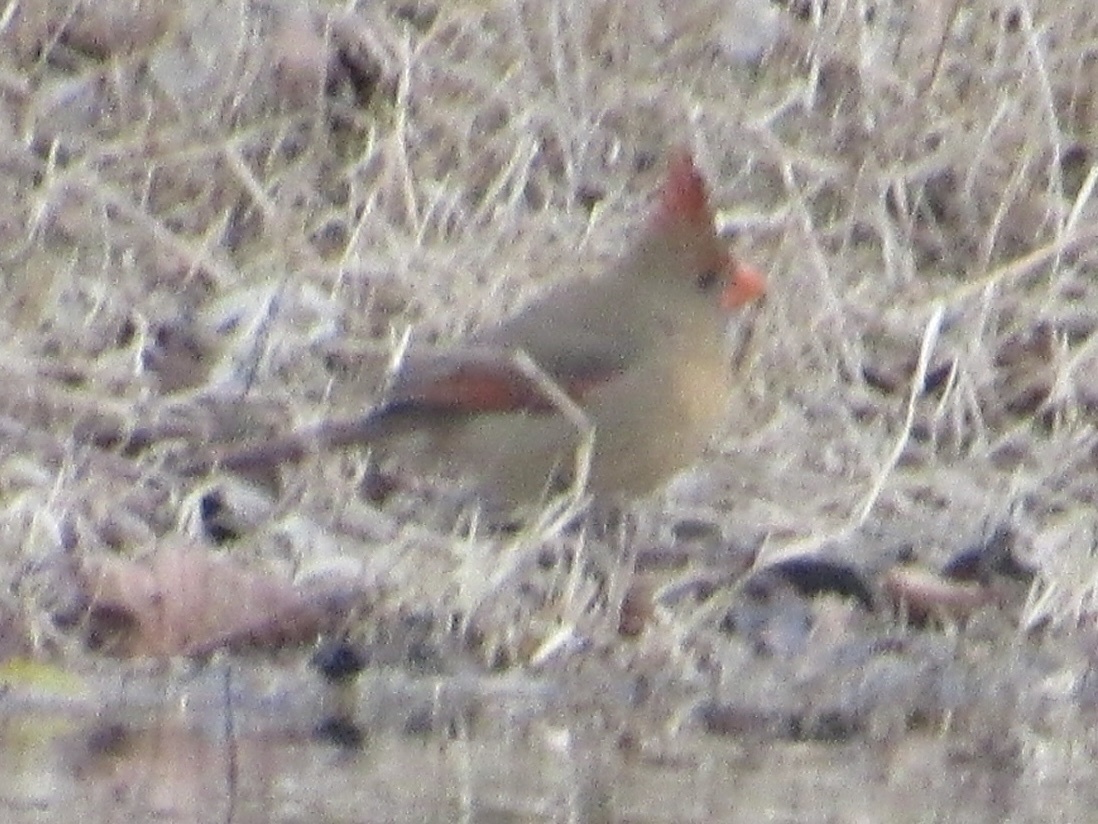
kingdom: Animalia
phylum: Chordata
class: Aves
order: Passeriformes
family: Cardinalidae
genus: Cardinalis
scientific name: Cardinalis cardinalis
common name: Northern cardinal
